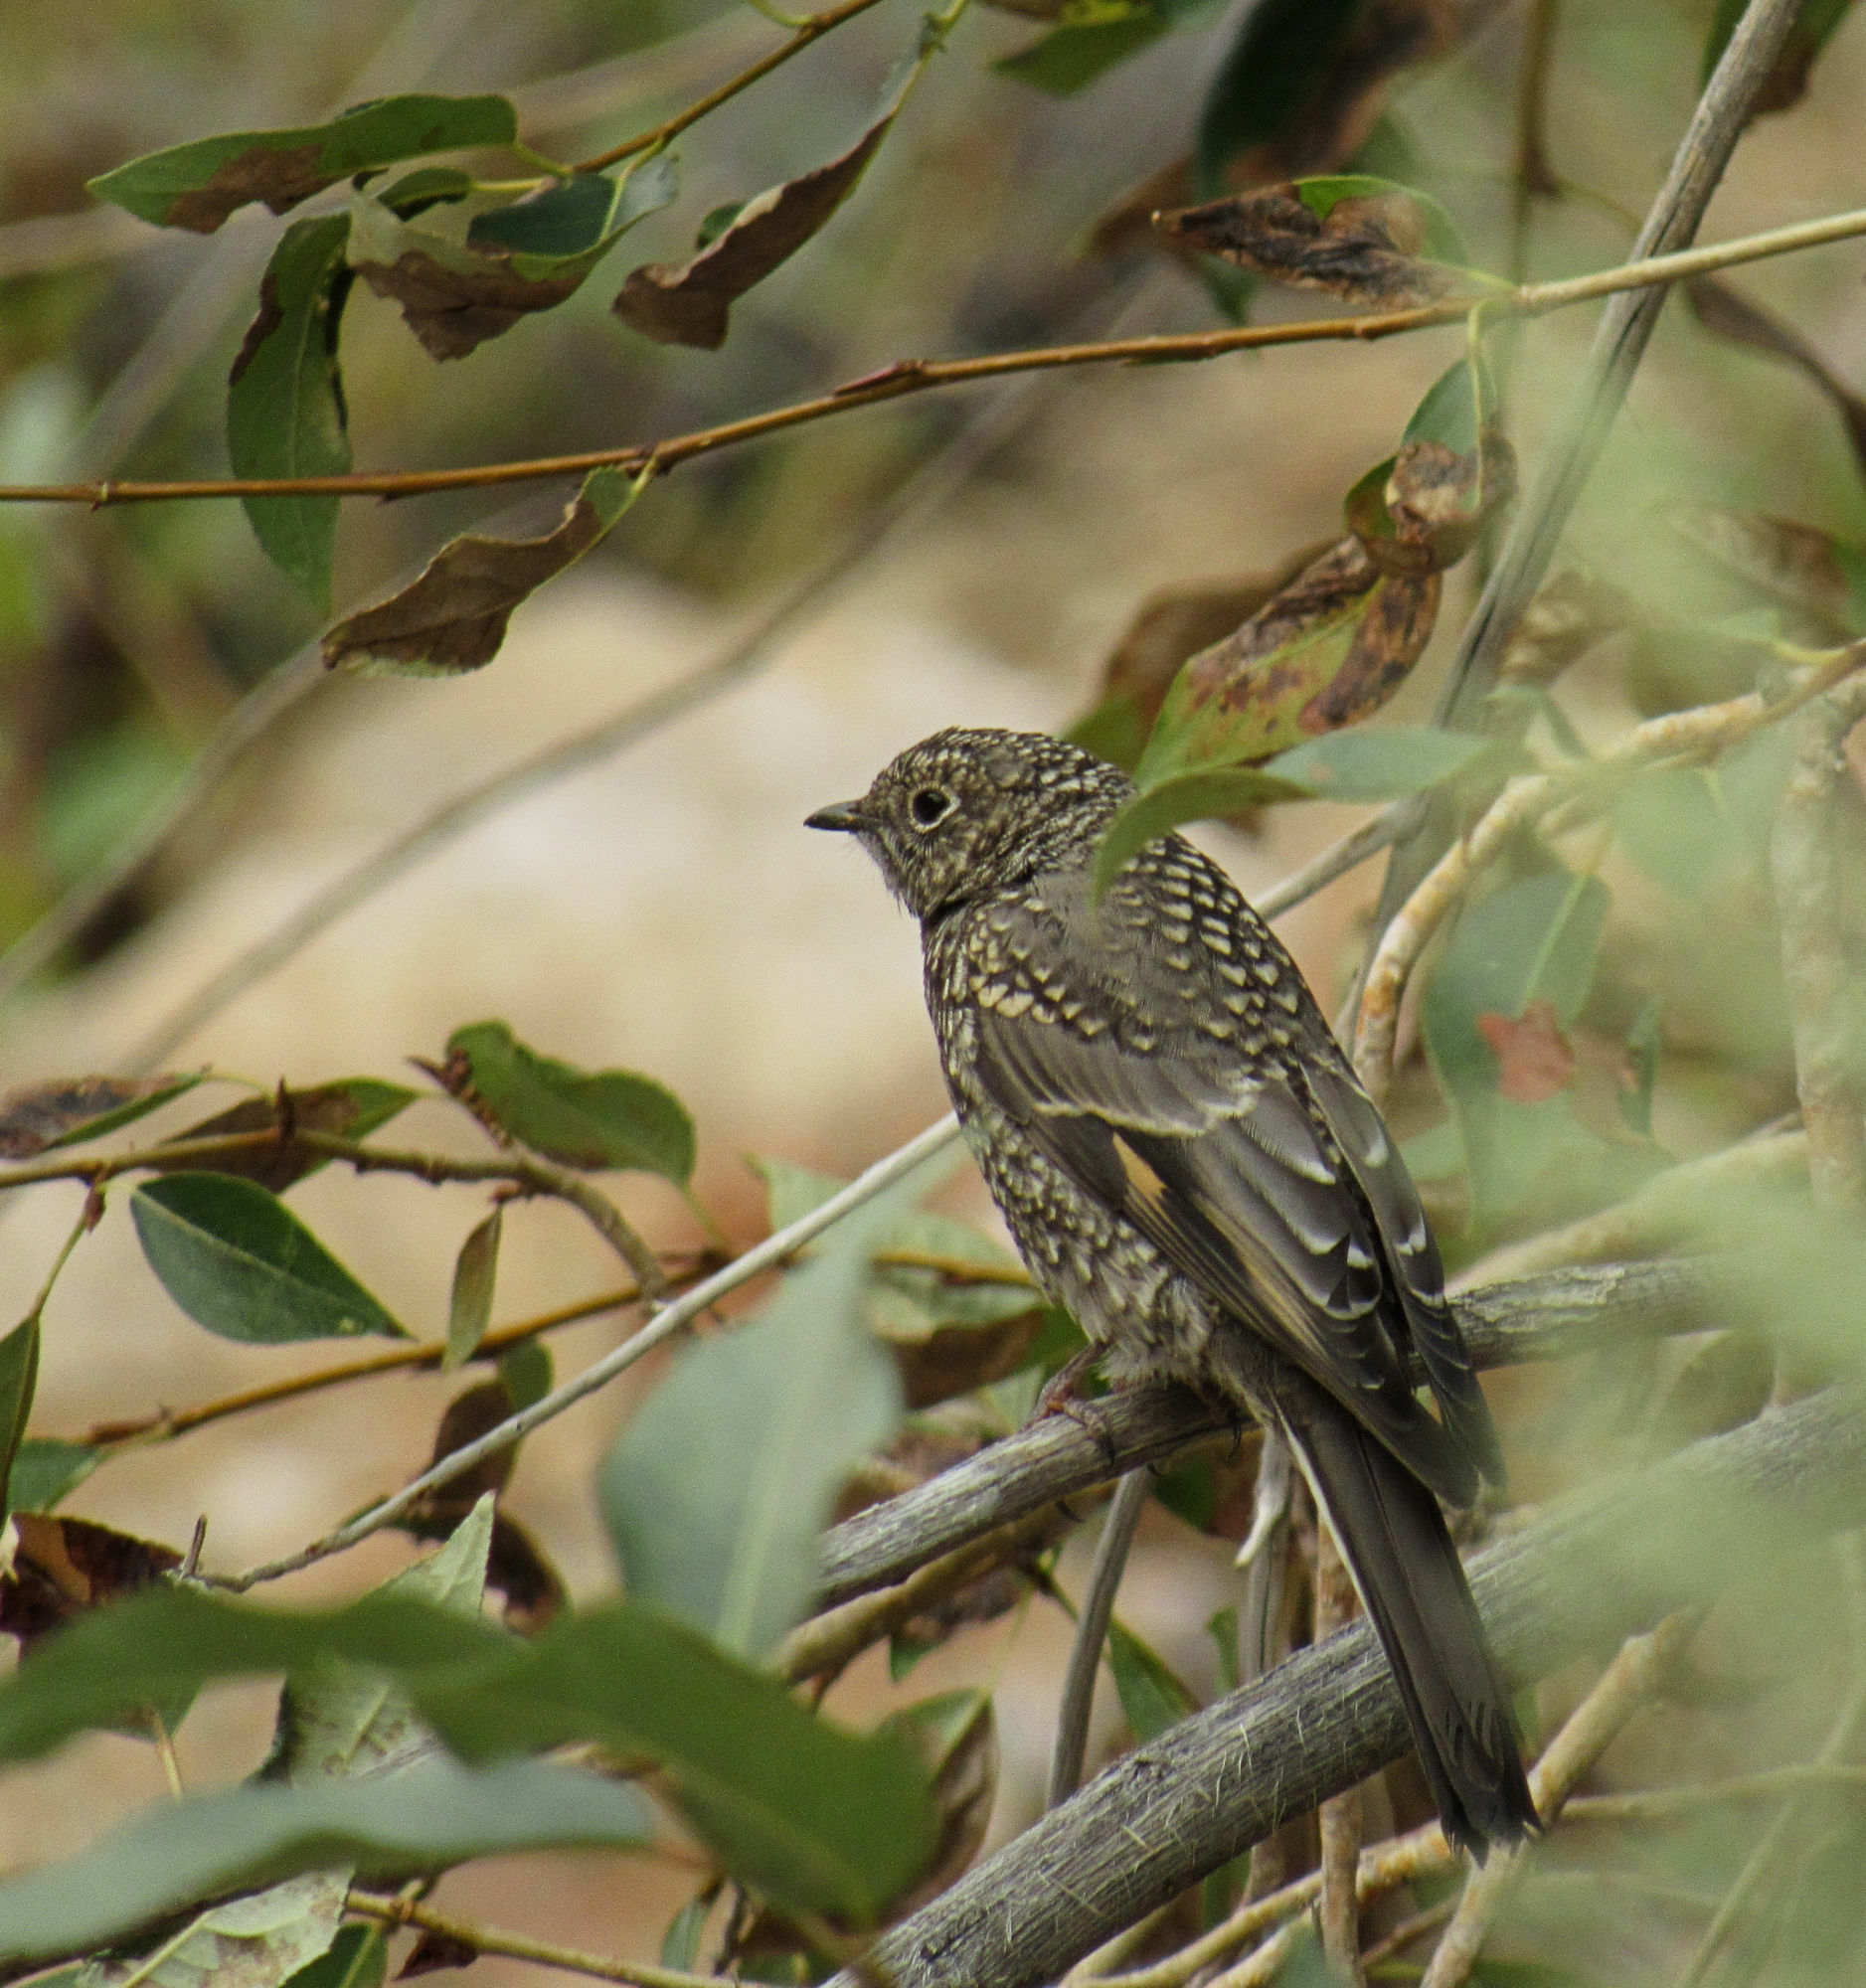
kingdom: Animalia
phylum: Chordata
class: Aves
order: Passeriformes
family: Turdidae
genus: Myadestes
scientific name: Myadestes townsendi
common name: Townsend's solitaire
